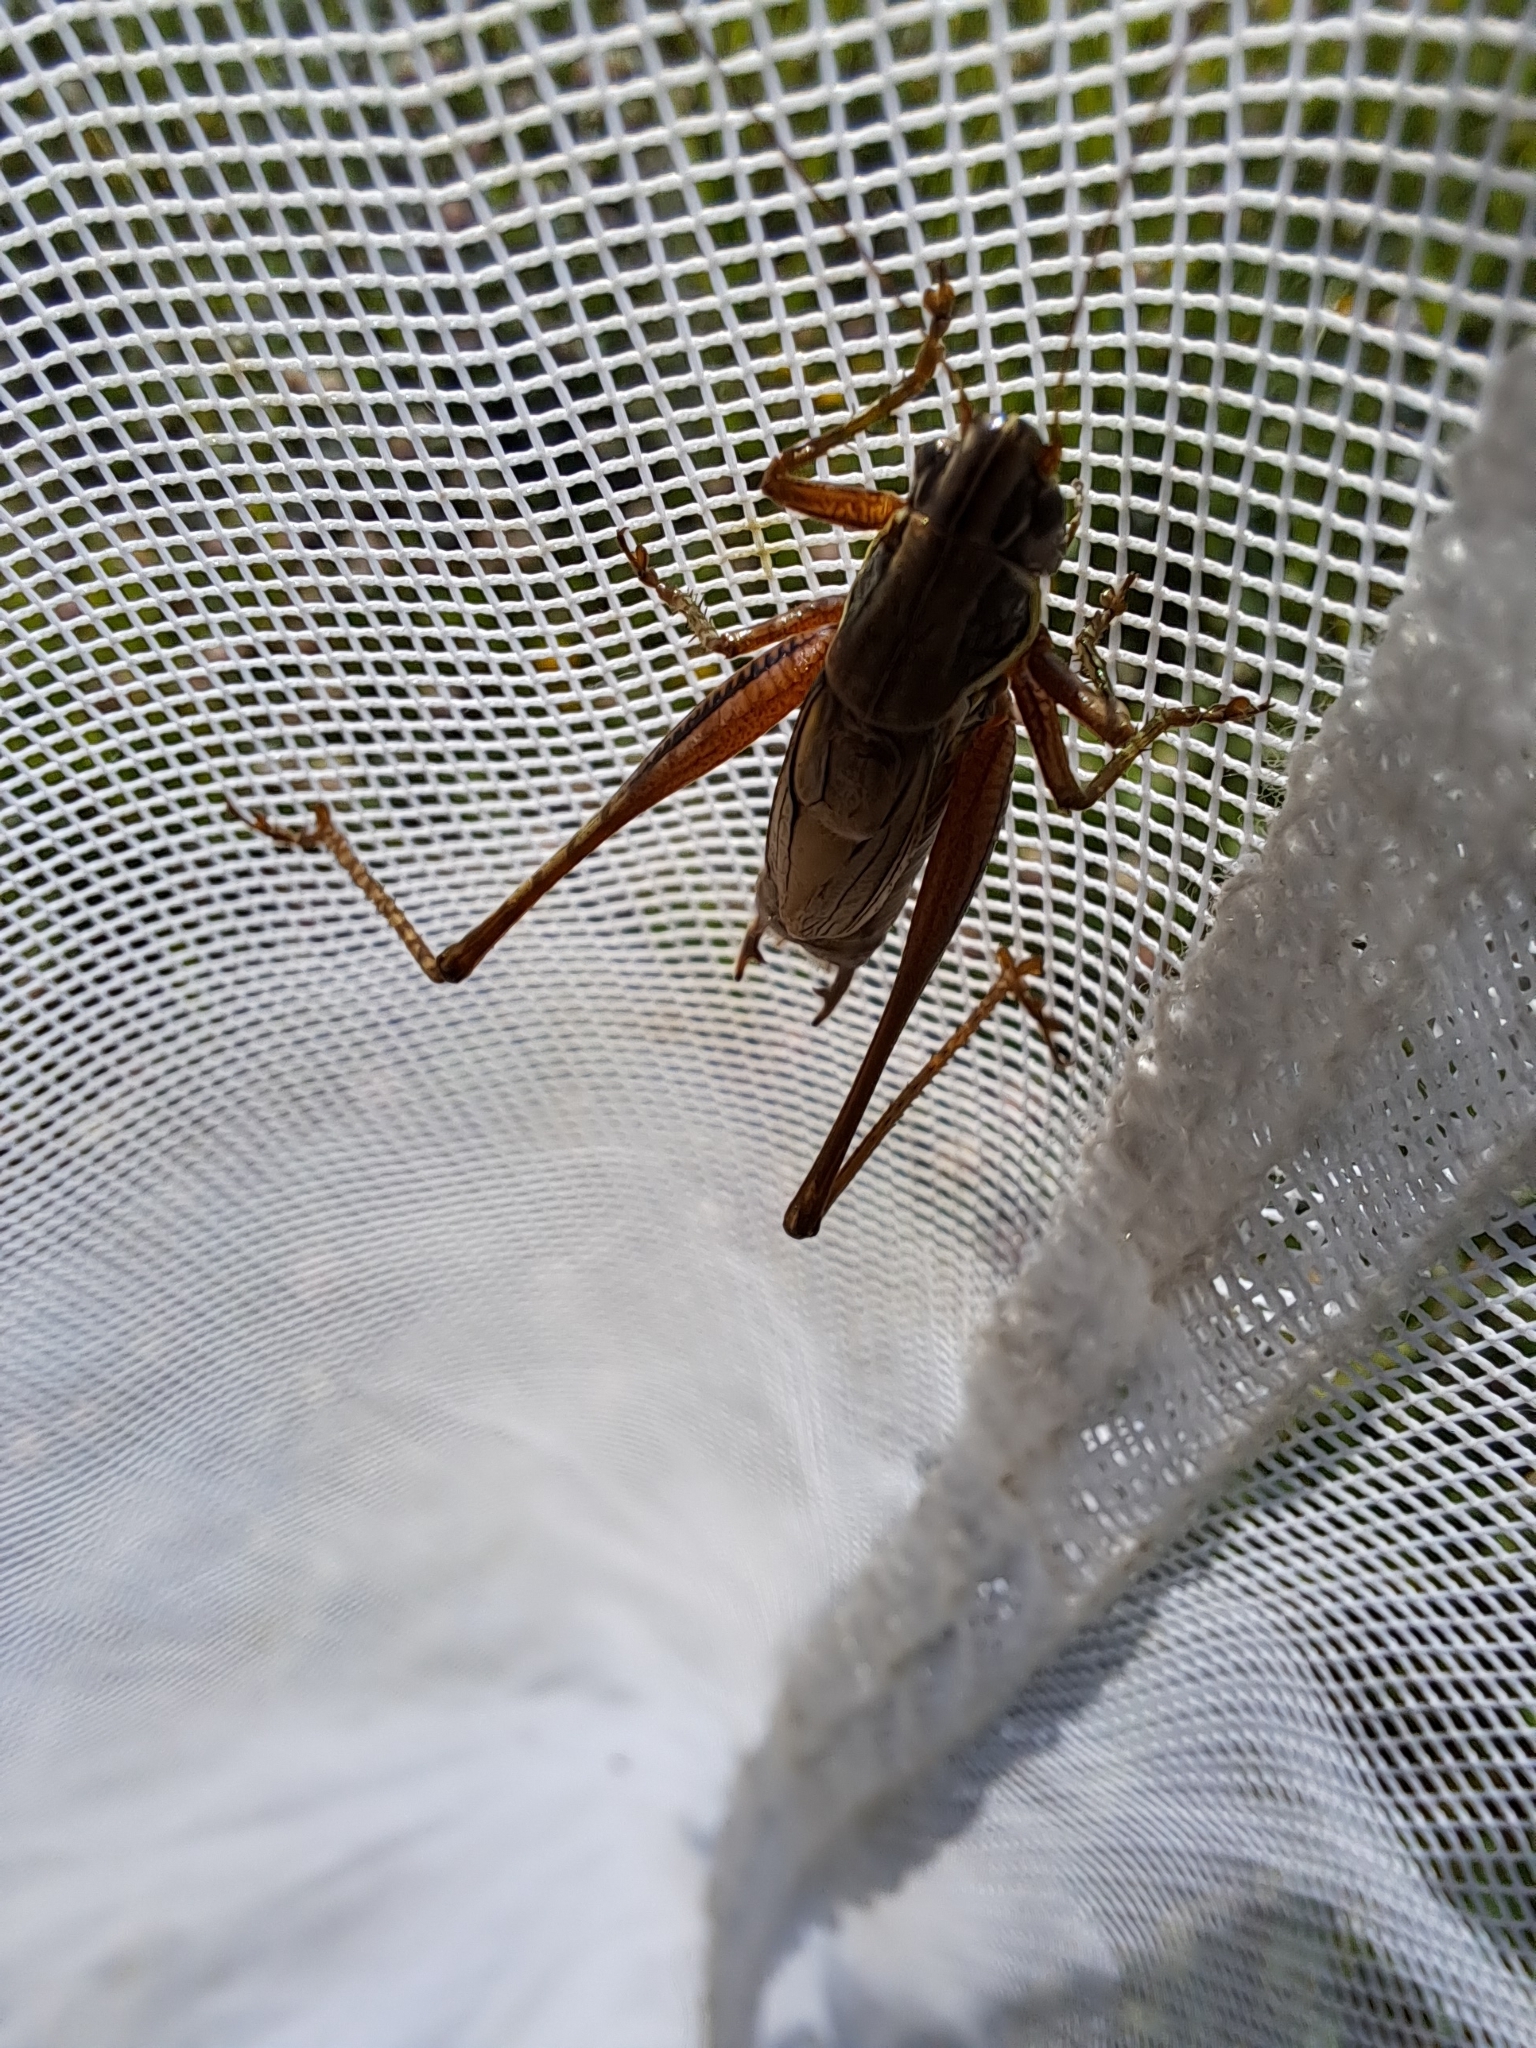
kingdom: Animalia
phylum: Arthropoda
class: Insecta
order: Orthoptera
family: Tettigoniidae
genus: Roeseliana
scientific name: Roeseliana roeselii
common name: Roesel's bush cricket
